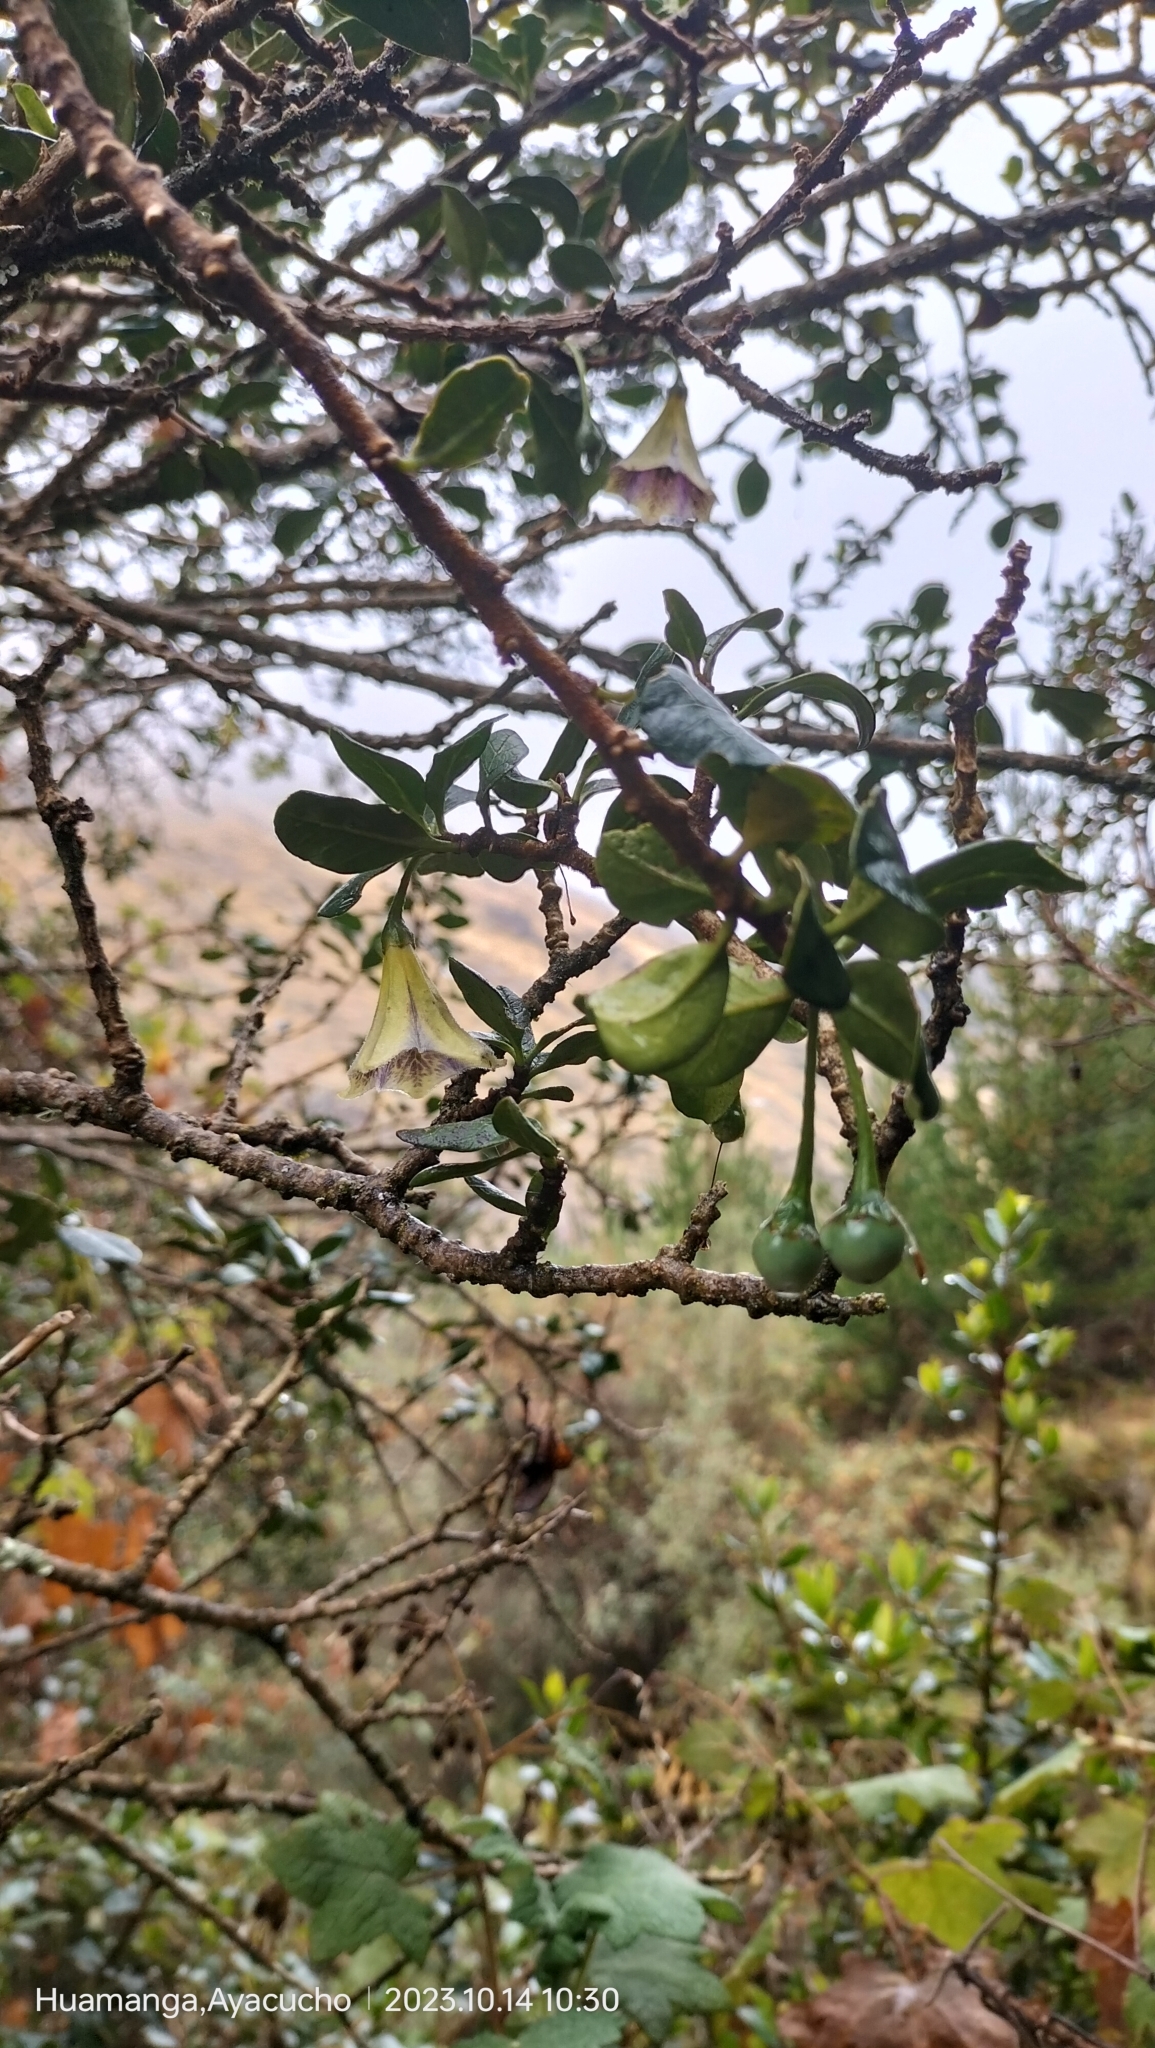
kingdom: Plantae
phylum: Tracheophyta
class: Magnoliopsida
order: Solanales
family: Solanaceae
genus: Saracha
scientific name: Saracha punctata
